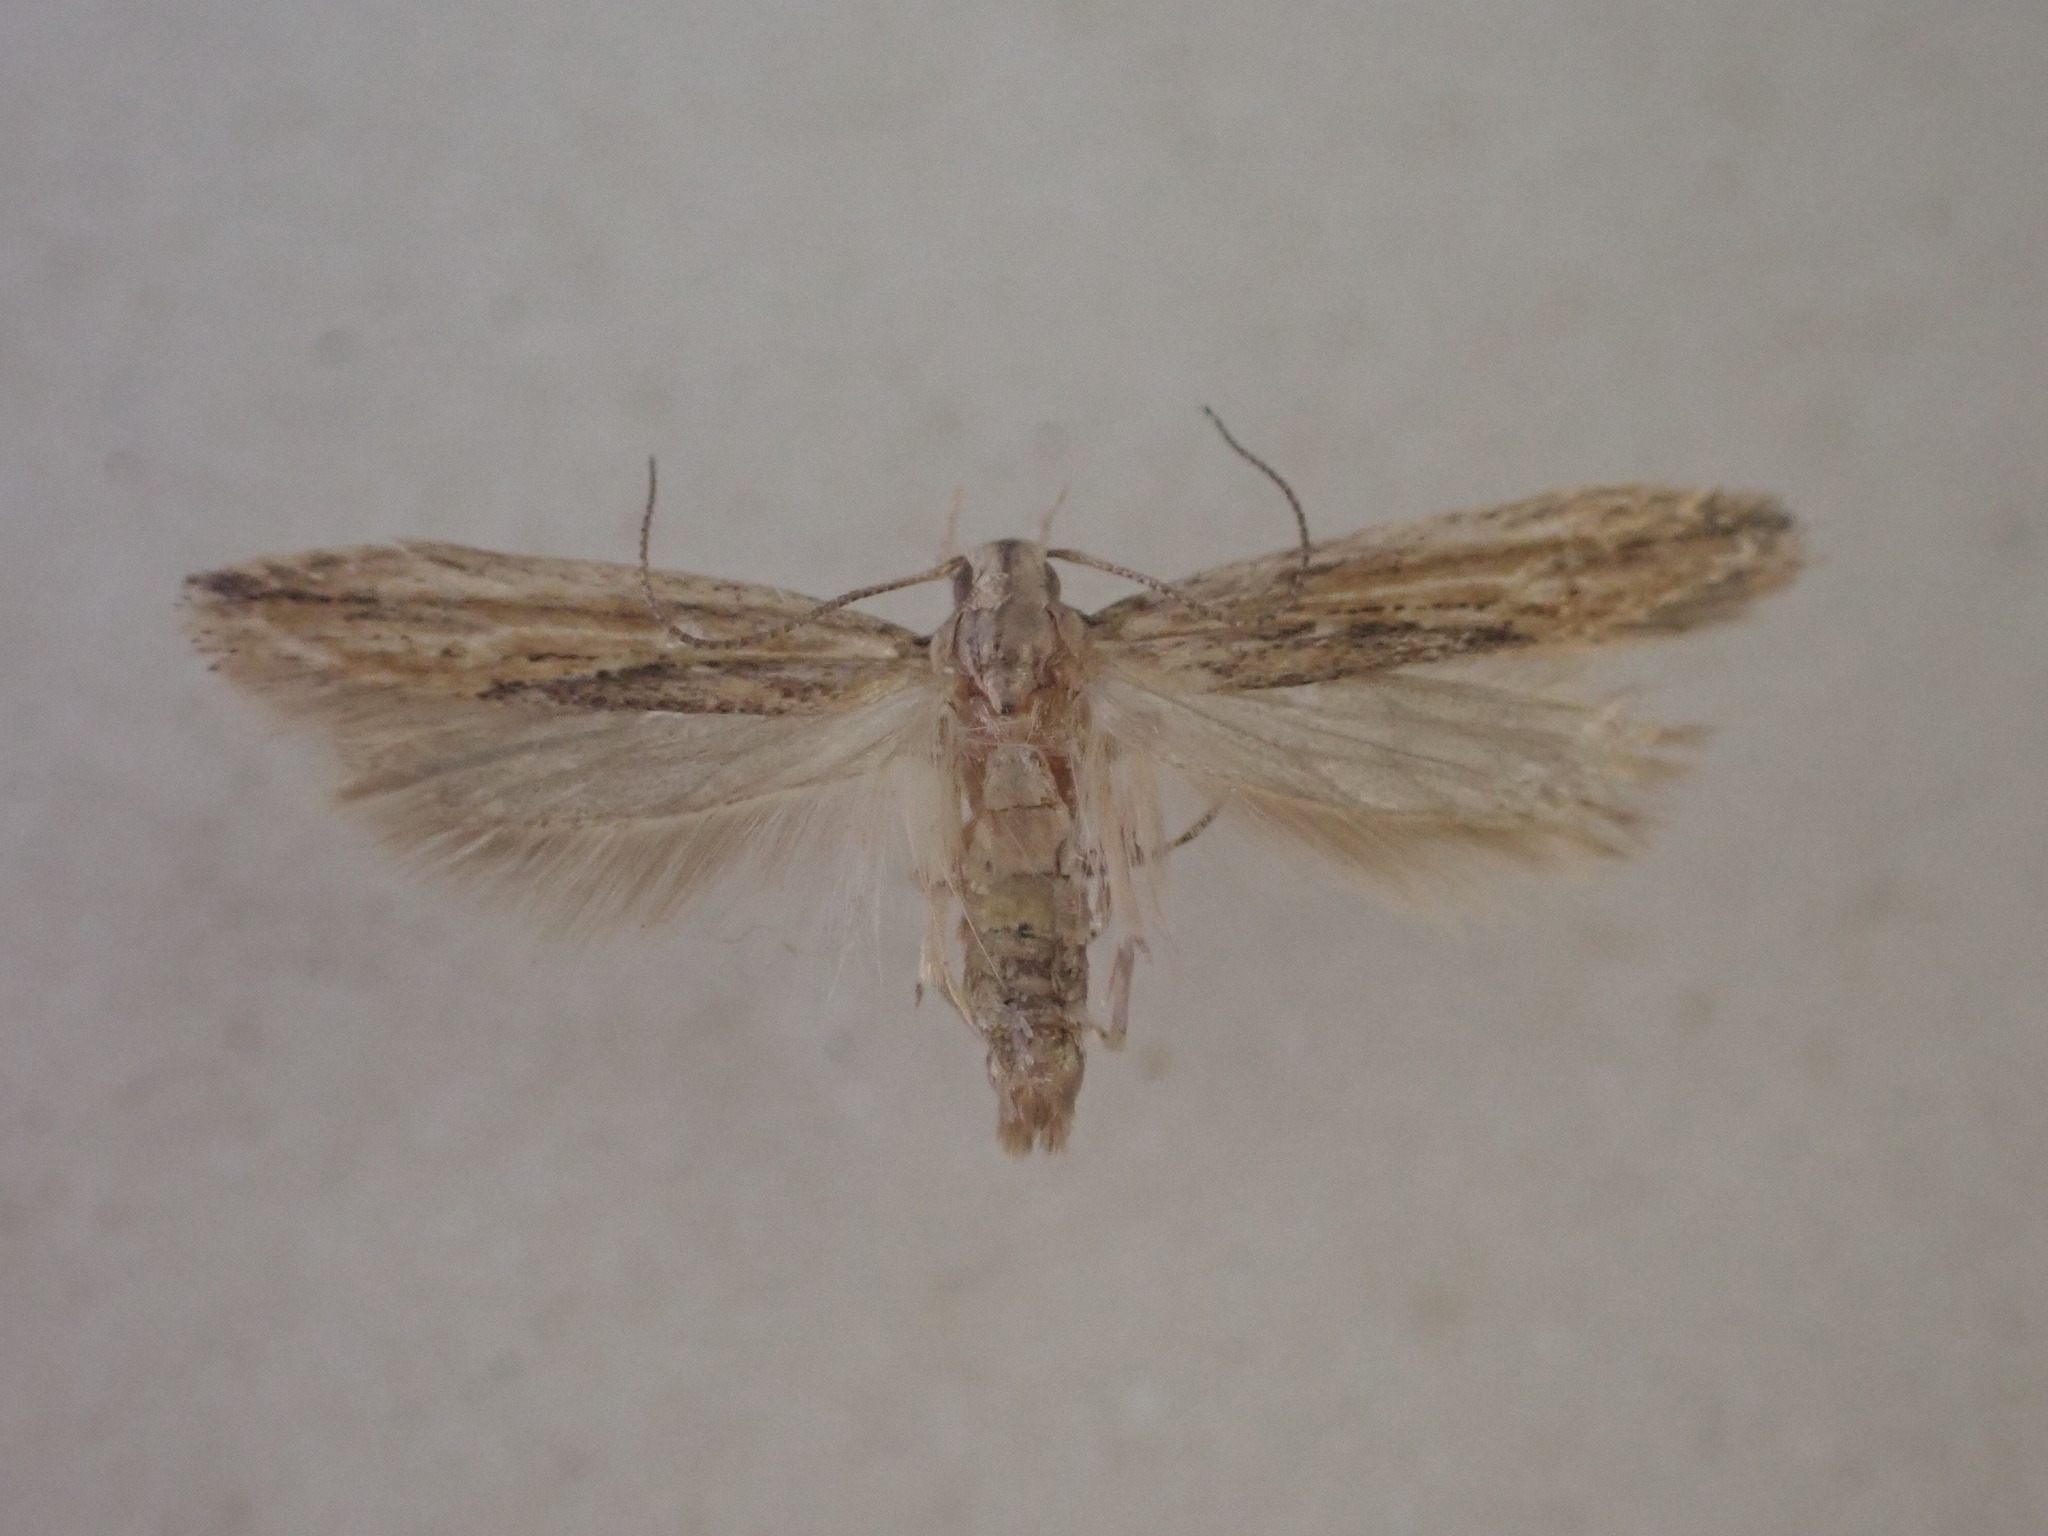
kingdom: Animalia
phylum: Arthropoda
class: Insecta
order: Lepidoptera
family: Gelechiidae
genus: Symmetrischema
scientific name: Symmetrischema striatella
